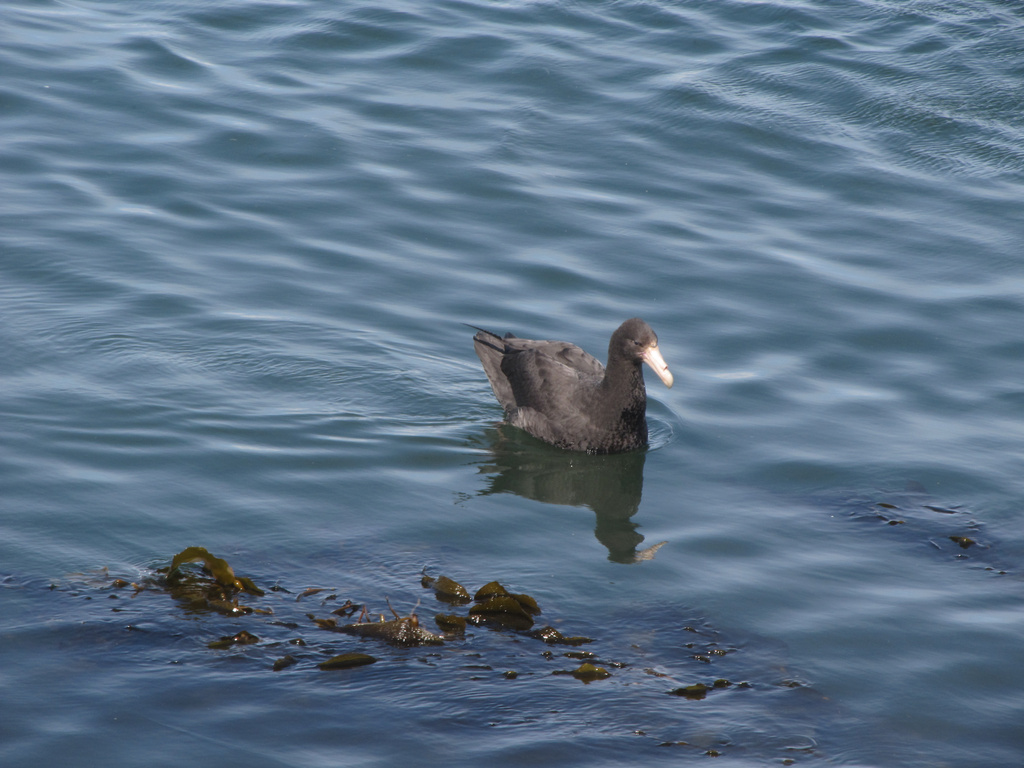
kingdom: Animalia
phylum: Chordata
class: Aves
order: Procellariiformes
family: Procellariidae
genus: Macronectes
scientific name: Macronectes giganteus
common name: Southern giant petrel
